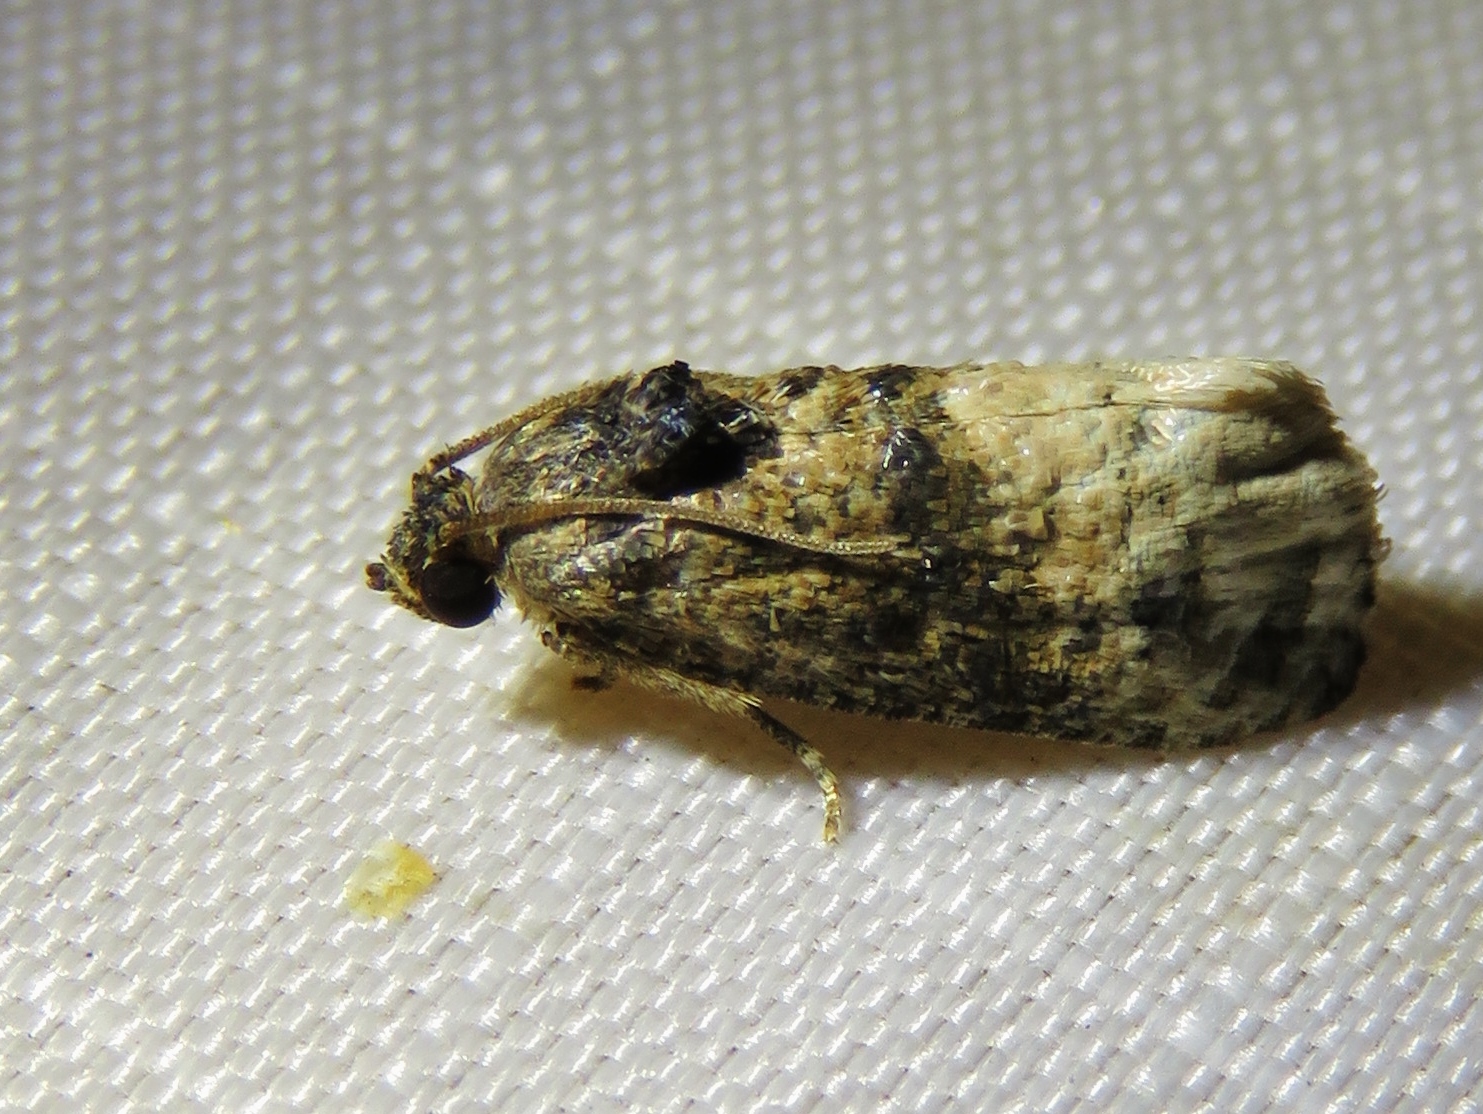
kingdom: Animalia
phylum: Arthropoda
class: Insecta
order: Lepidoptera
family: Tortricidae
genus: Ecdytolopha
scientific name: Ecdytolopha mana
